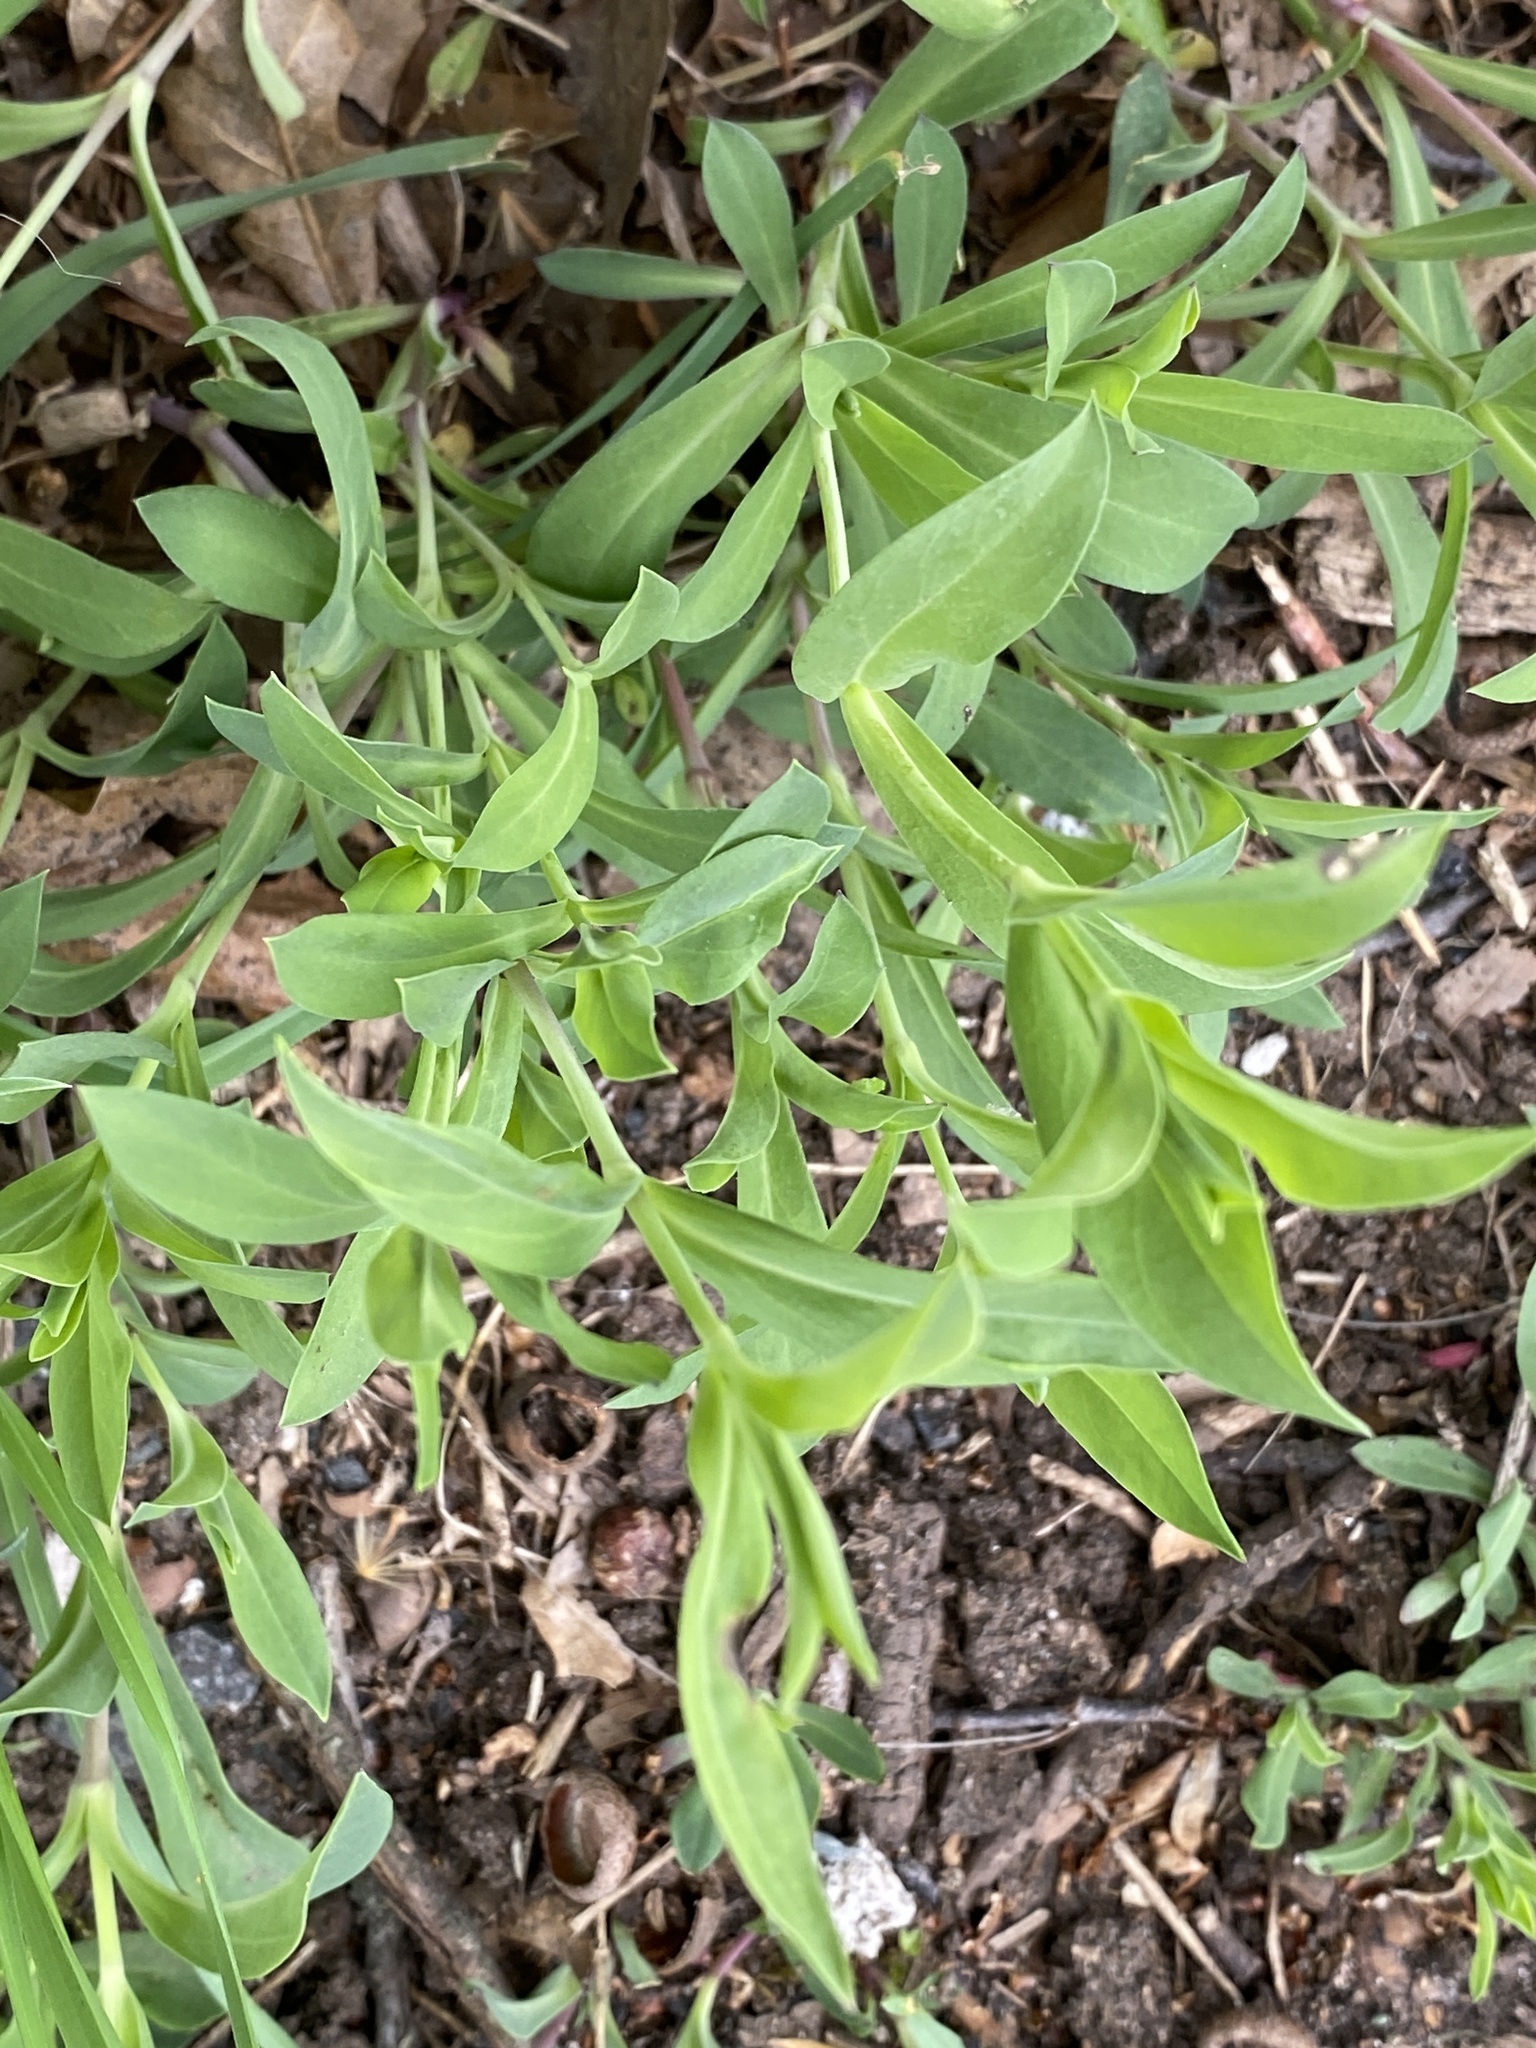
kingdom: Plantae
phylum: Tracheophyta
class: Magnoliopsida
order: Caryophyllales
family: Caryophyllaceae
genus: Silene
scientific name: Silene vulgaris
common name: Bladder campion
